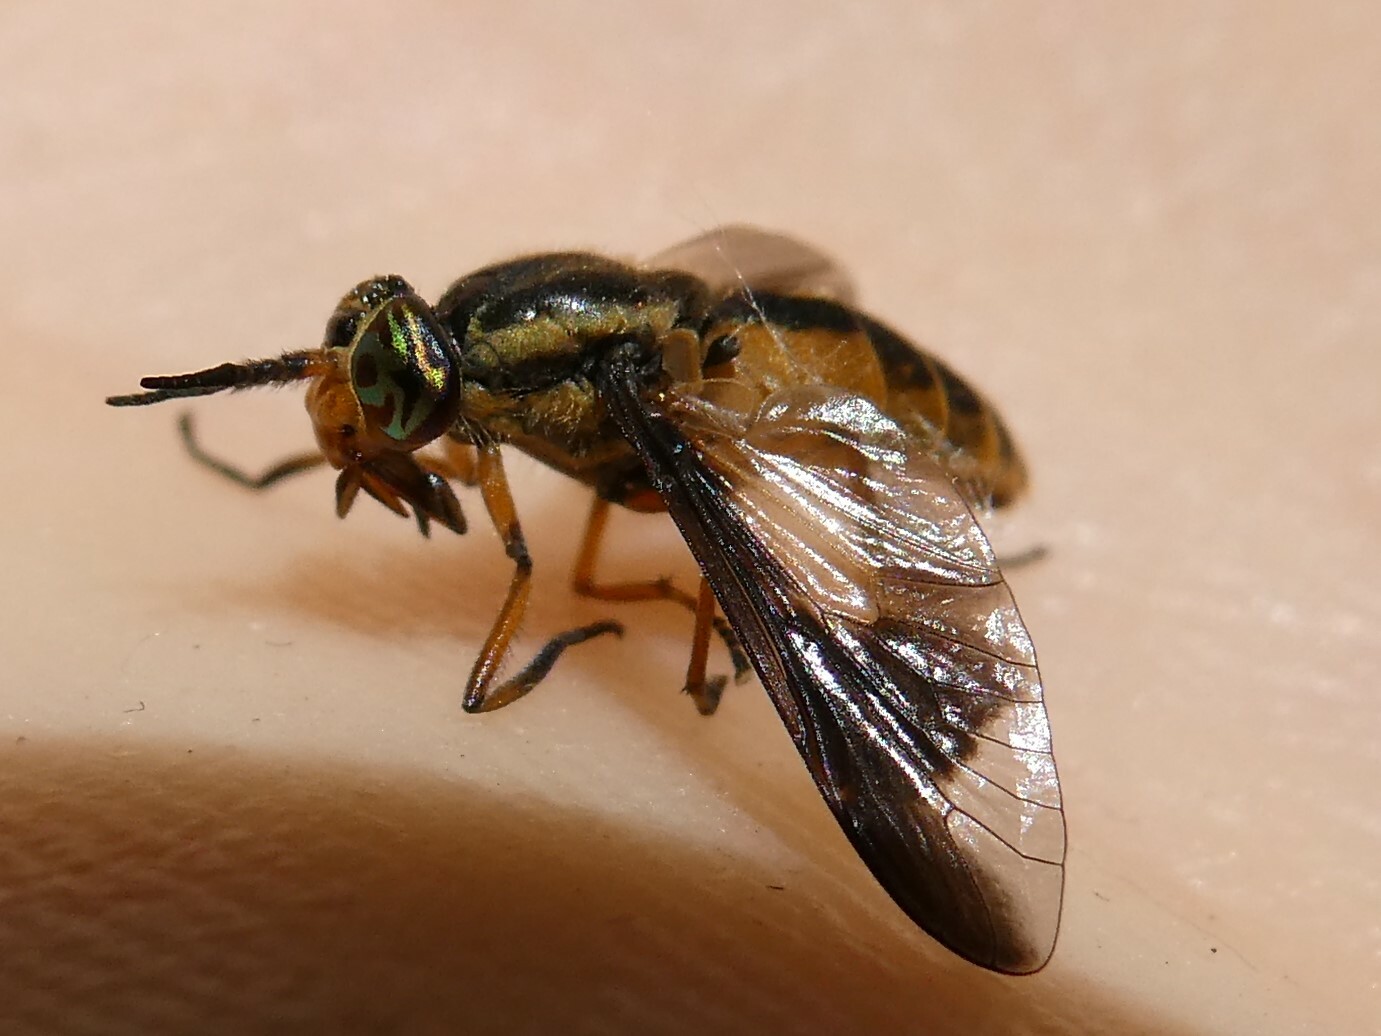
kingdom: Animalia
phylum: Arthropoda
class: Insecta
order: Diptera
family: Tabanidae
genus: Chrysops
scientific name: Chrysops indus
